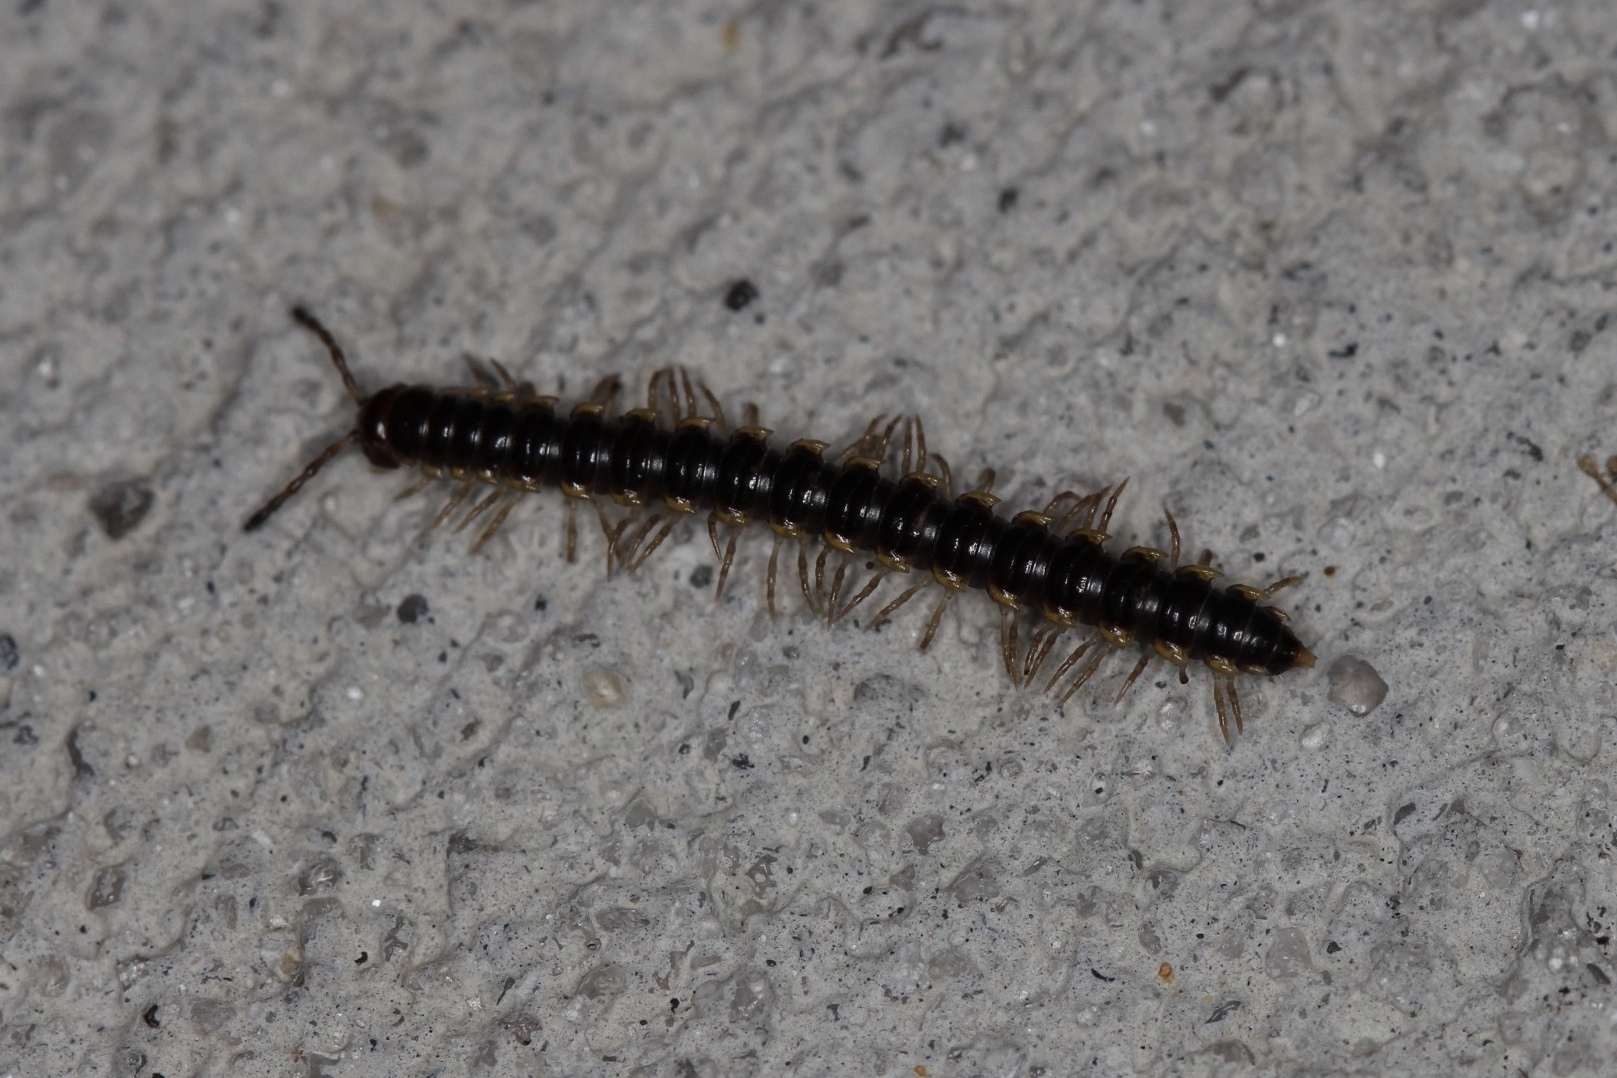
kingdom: Animalia
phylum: Arthropoda
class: Diplopoda
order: Polydesmida
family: Paradoxosomatidae
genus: Orthomorpha
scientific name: Orthomorpha coarctata
